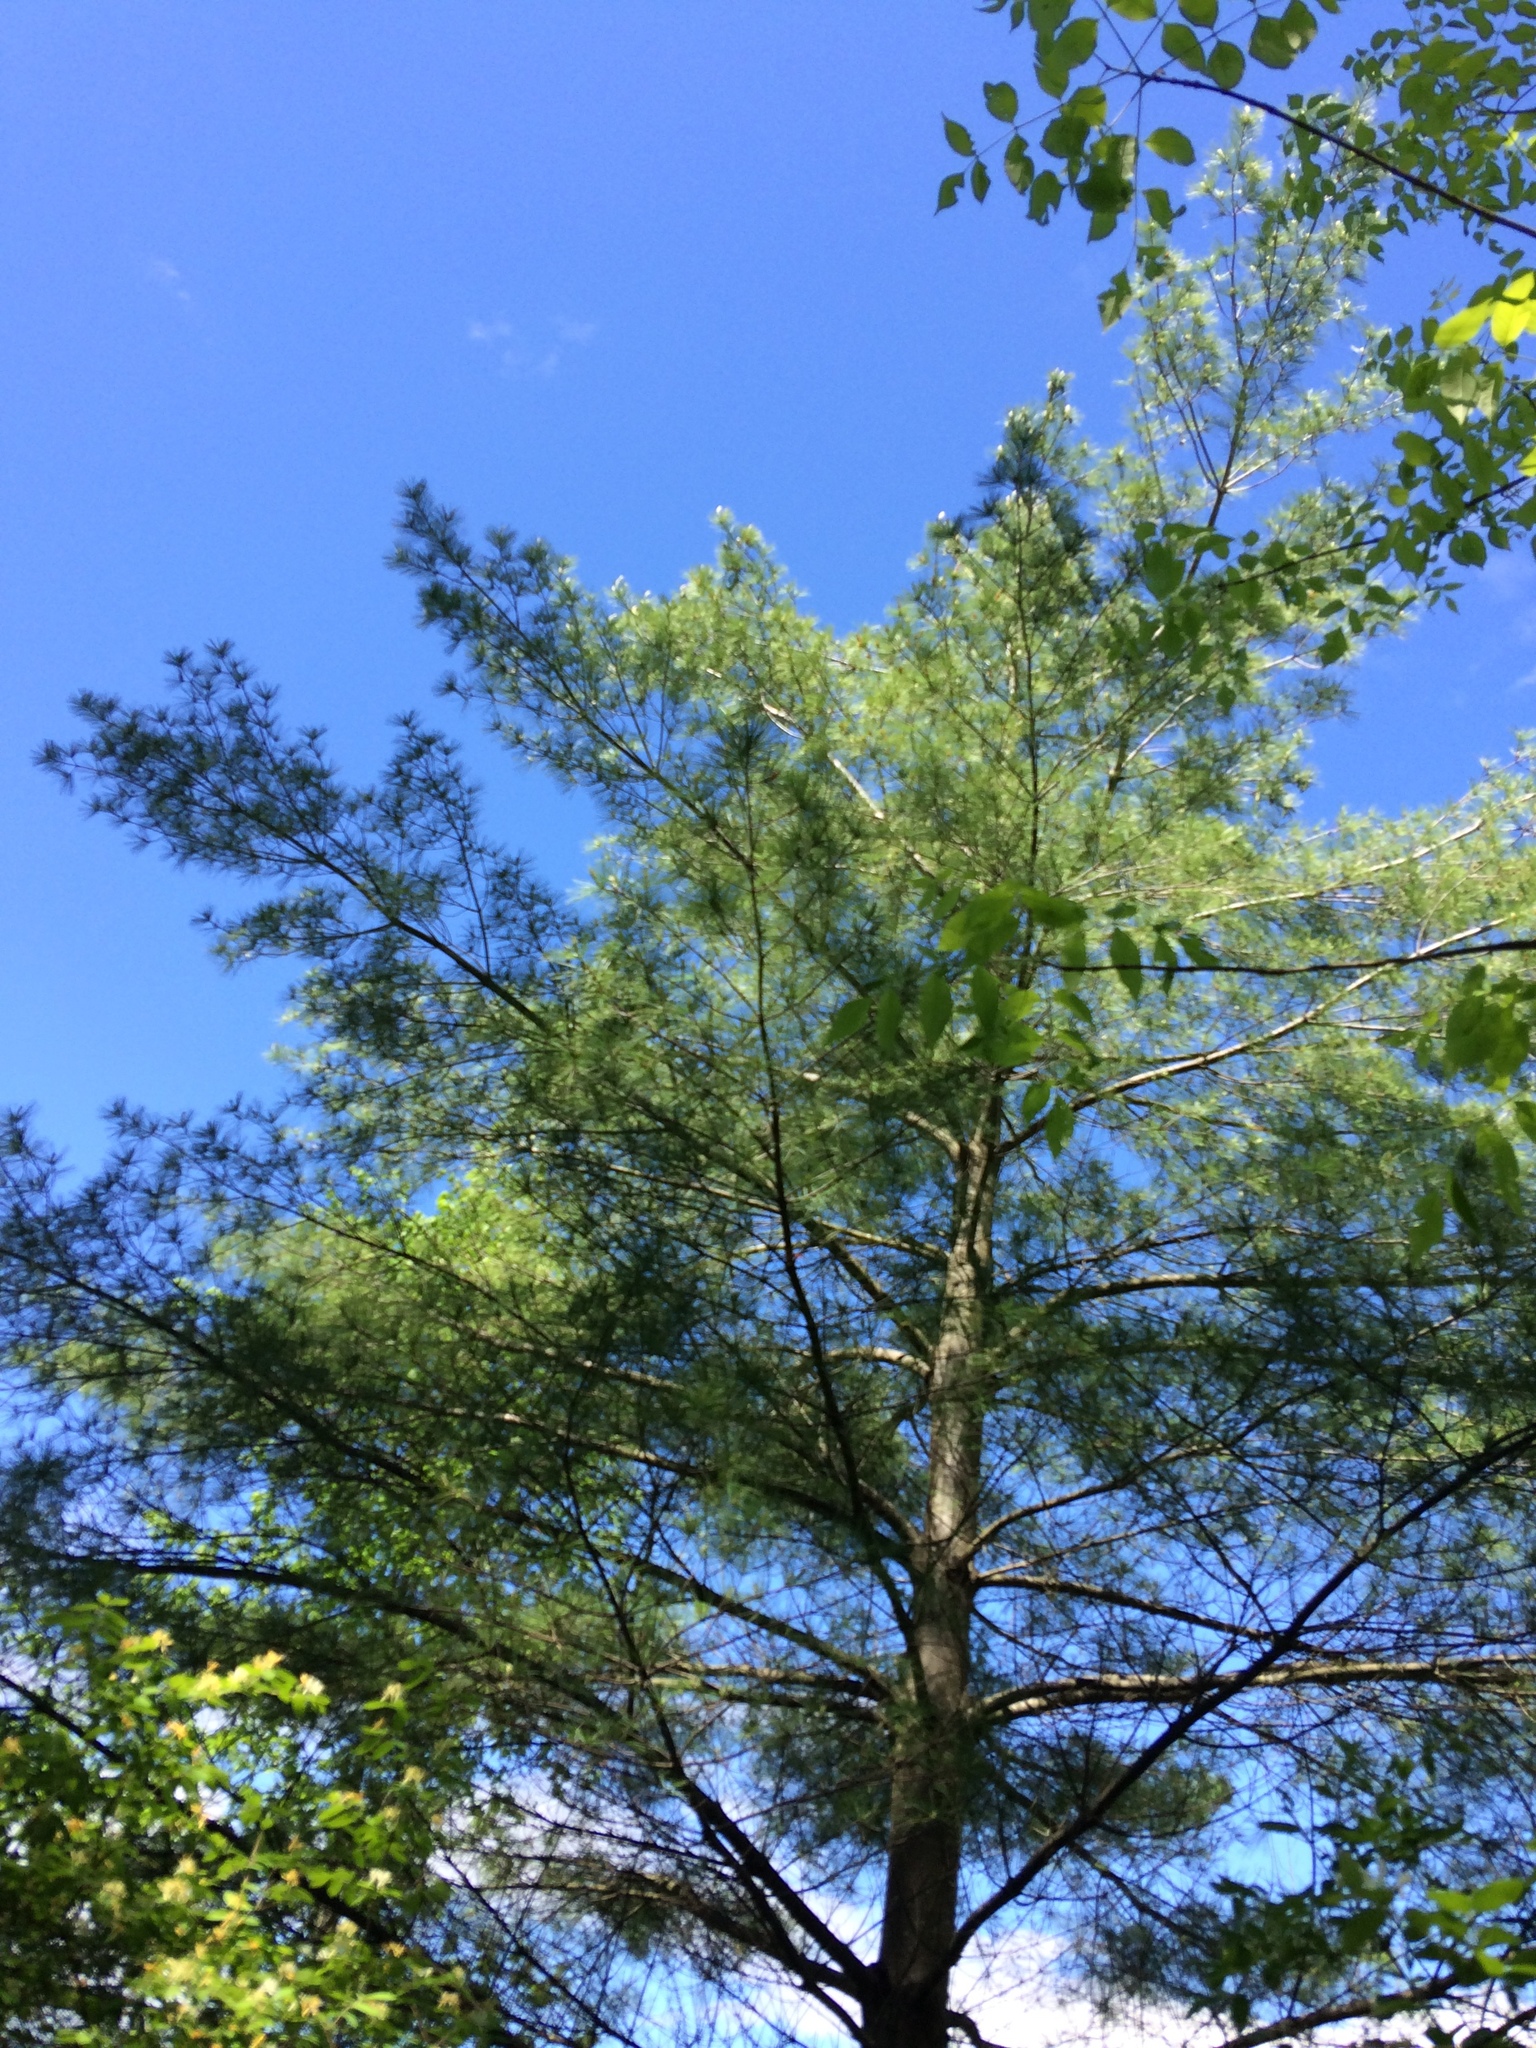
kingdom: Plantae
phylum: Tracheophyta
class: Pinopsida
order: Pinales
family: Pinaceae
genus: Pinus
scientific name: Pinus strobus
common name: Weymouth pine
